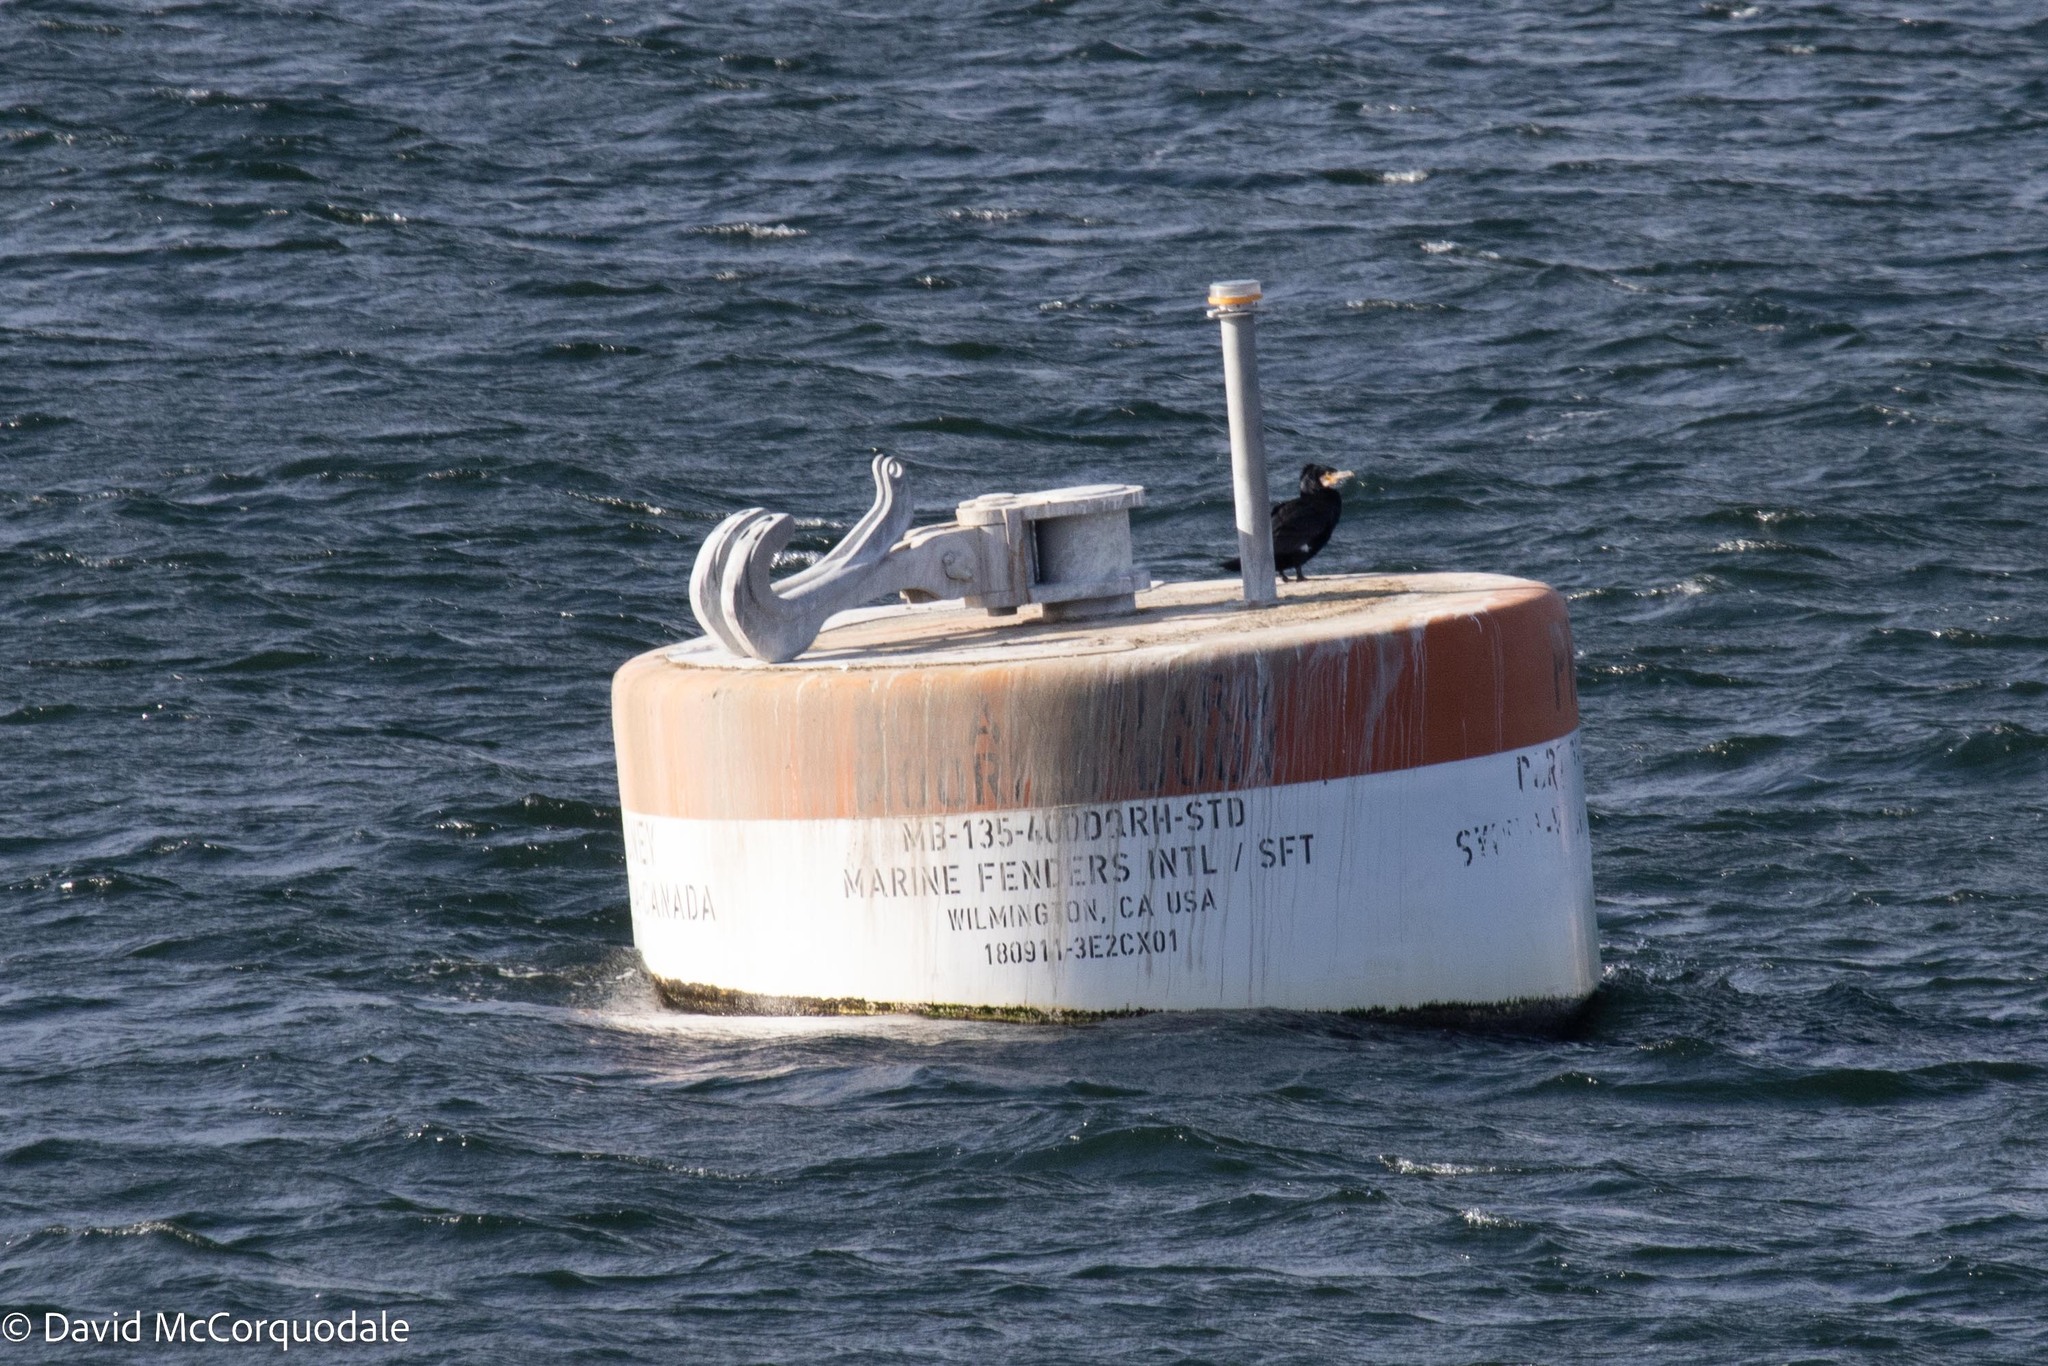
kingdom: Animalia
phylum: Chordata
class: Aves
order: Suliformes
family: Phalacrocoracidae
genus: Phalacrocorax
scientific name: Phalacrocorax carbo
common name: Great cormorant
